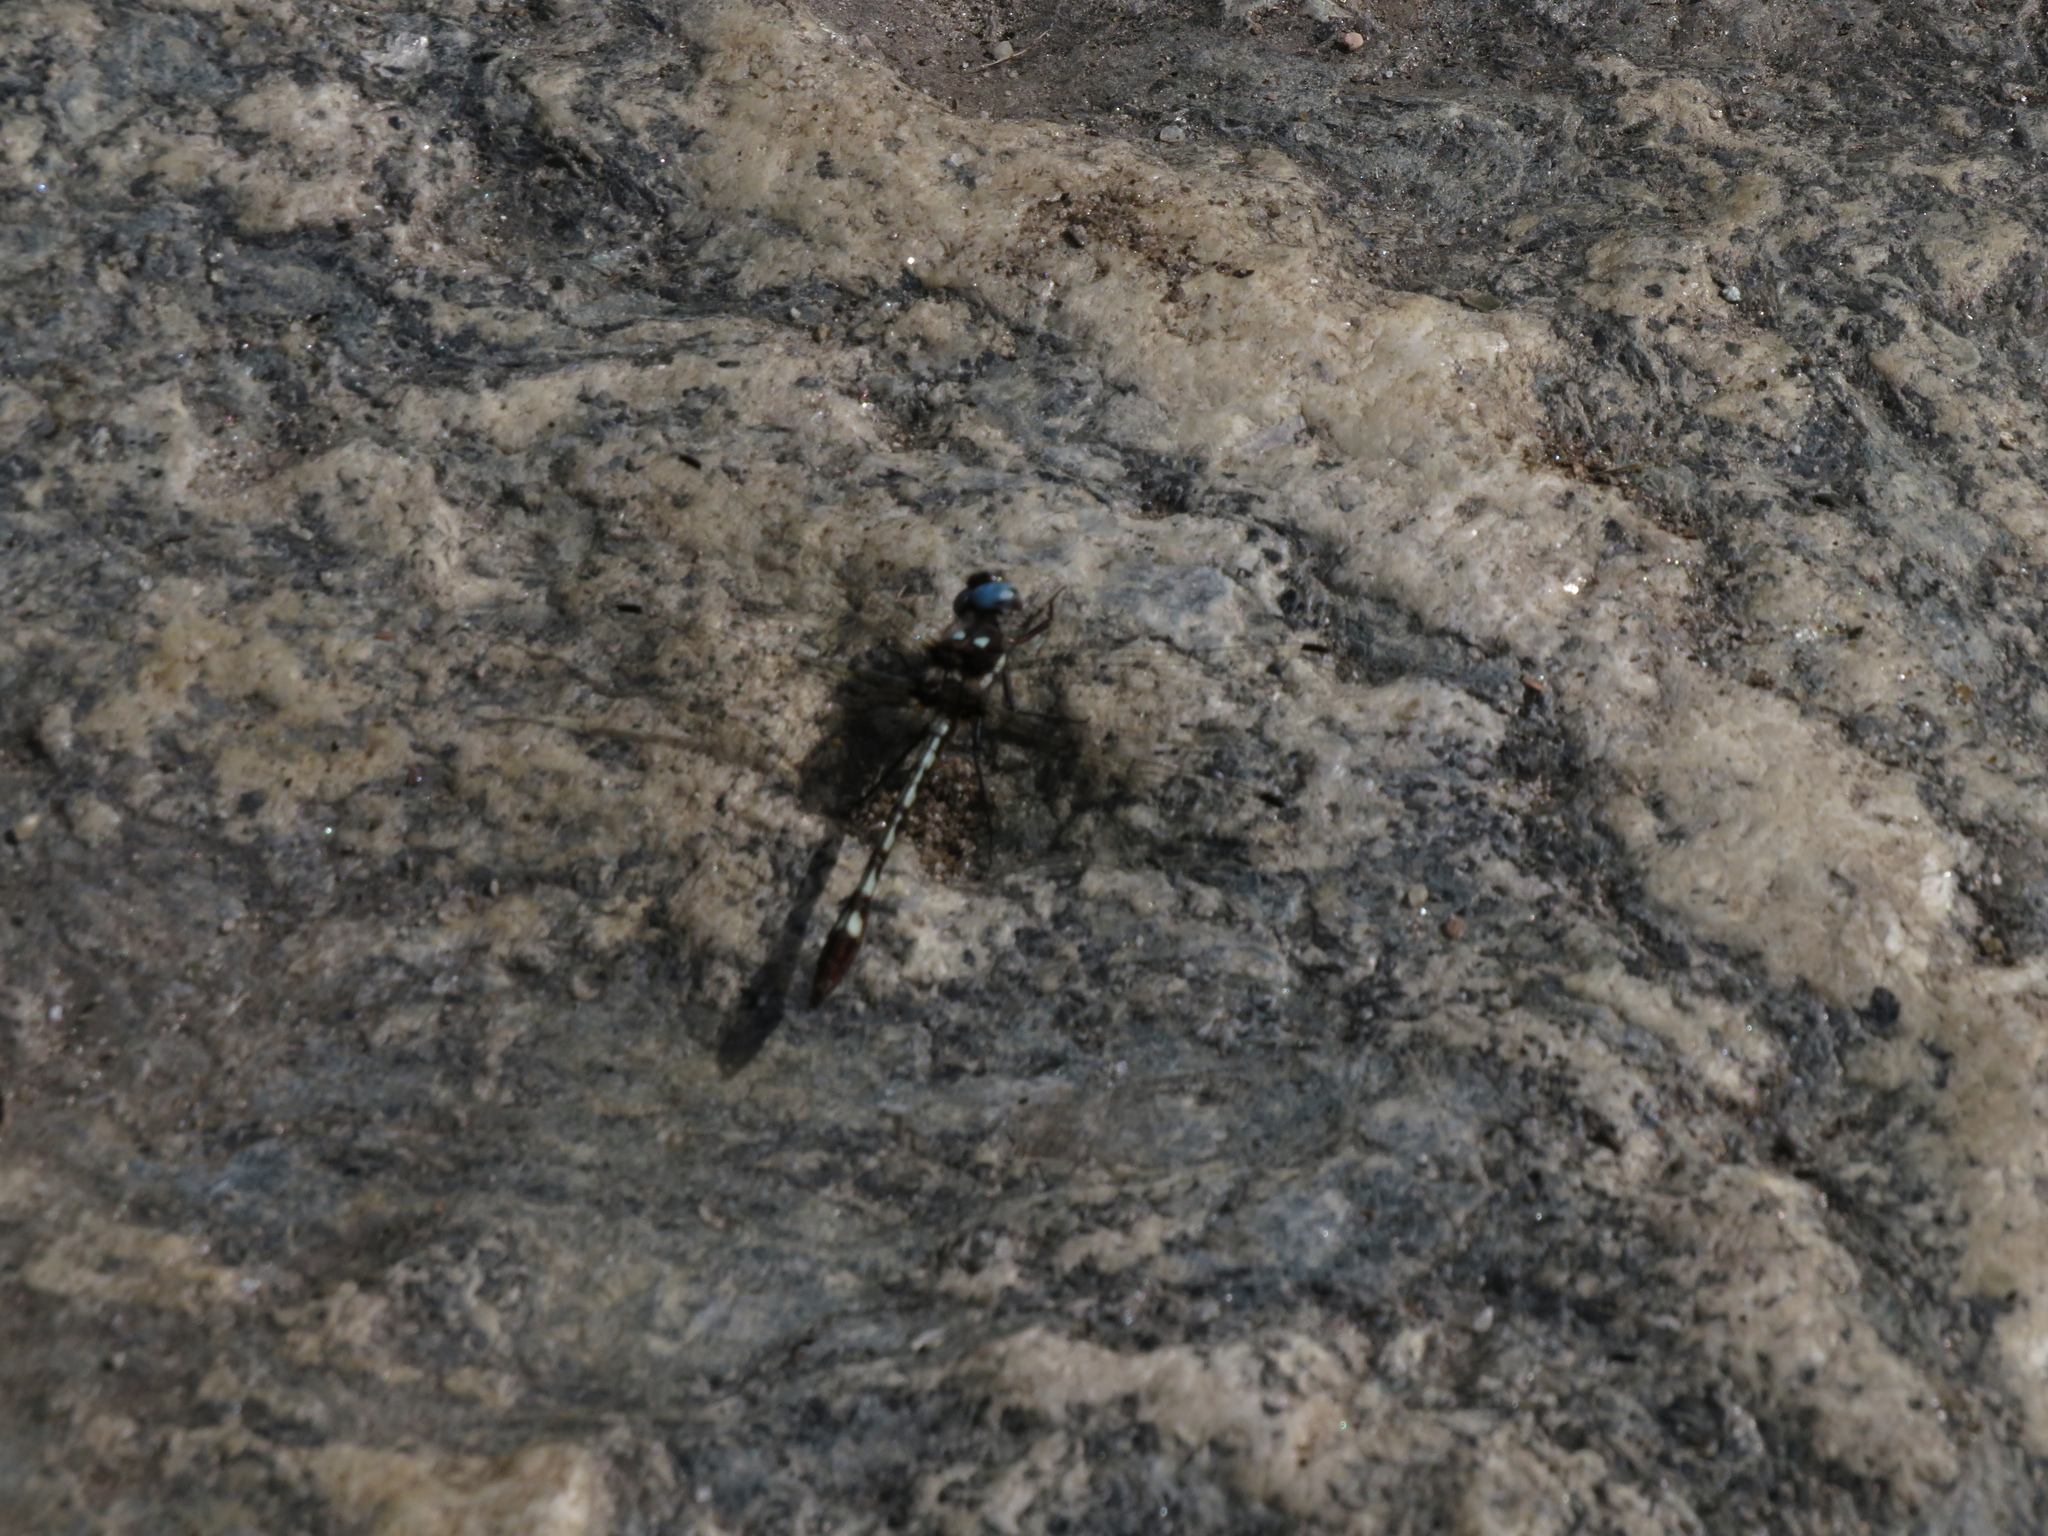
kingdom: Animalia
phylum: Arthropoda
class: Insecta
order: Odonata
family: Libellulidae
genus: Macrothemis
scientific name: Macrothemis imitans
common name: Ivory-striped sylph
